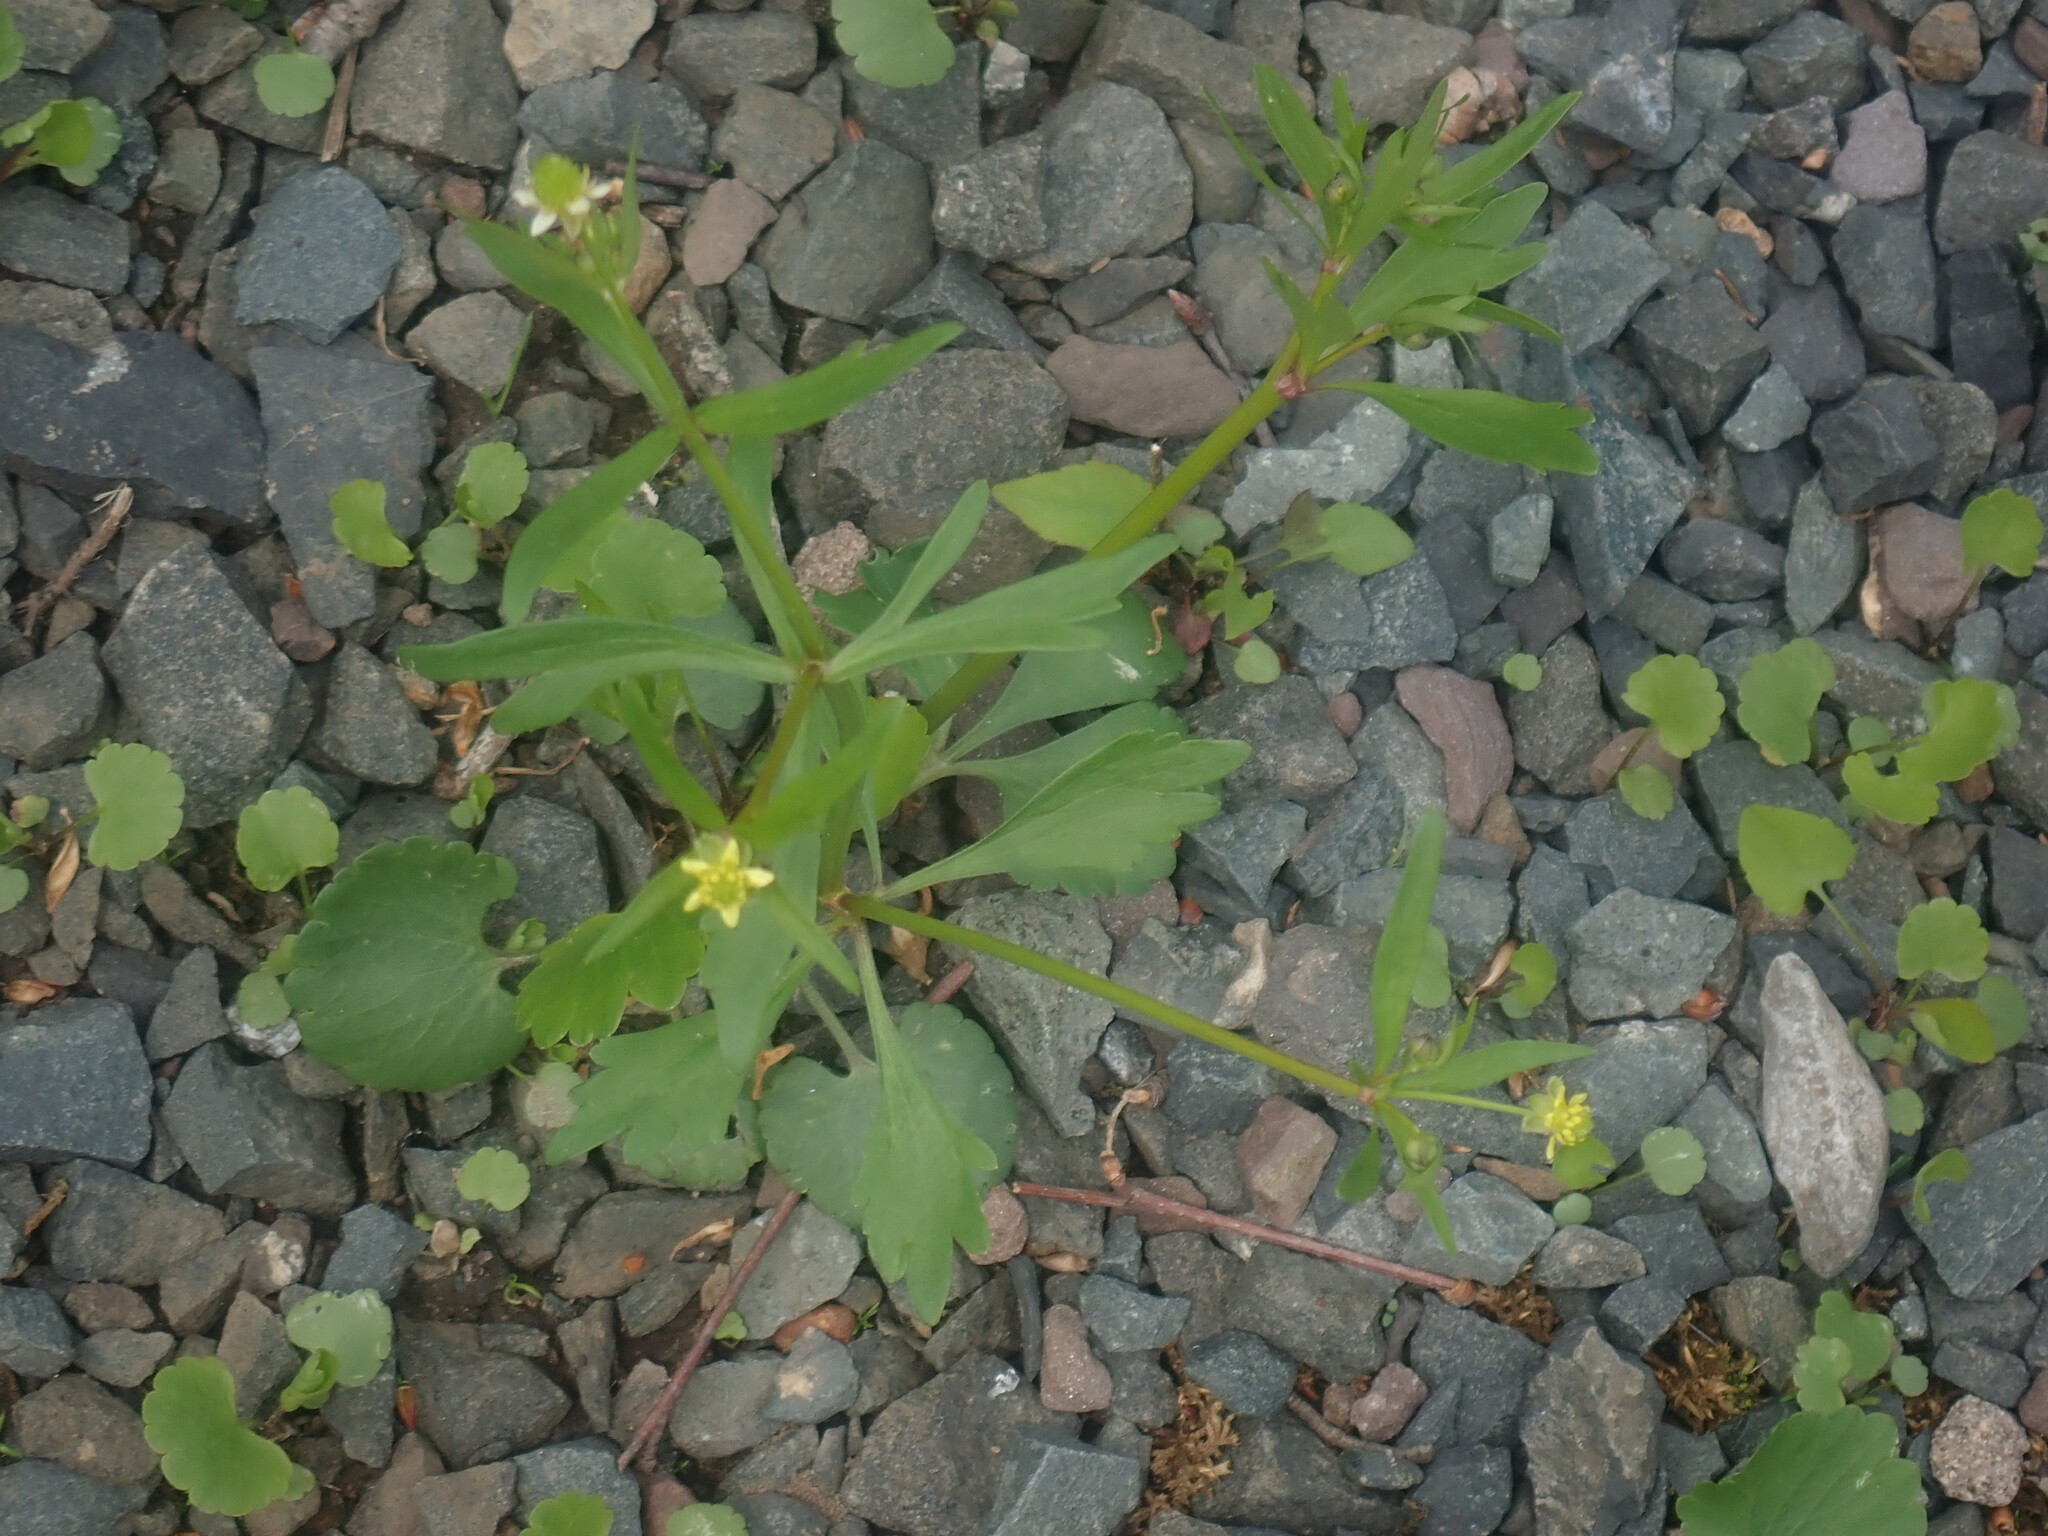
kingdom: Plantae
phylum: Tracheophyta
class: Magnoliopsida
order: Ranunculales
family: Ranunculaceae
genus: Ranunculus
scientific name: Ranunculus abortivus
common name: Early wood buttercup
